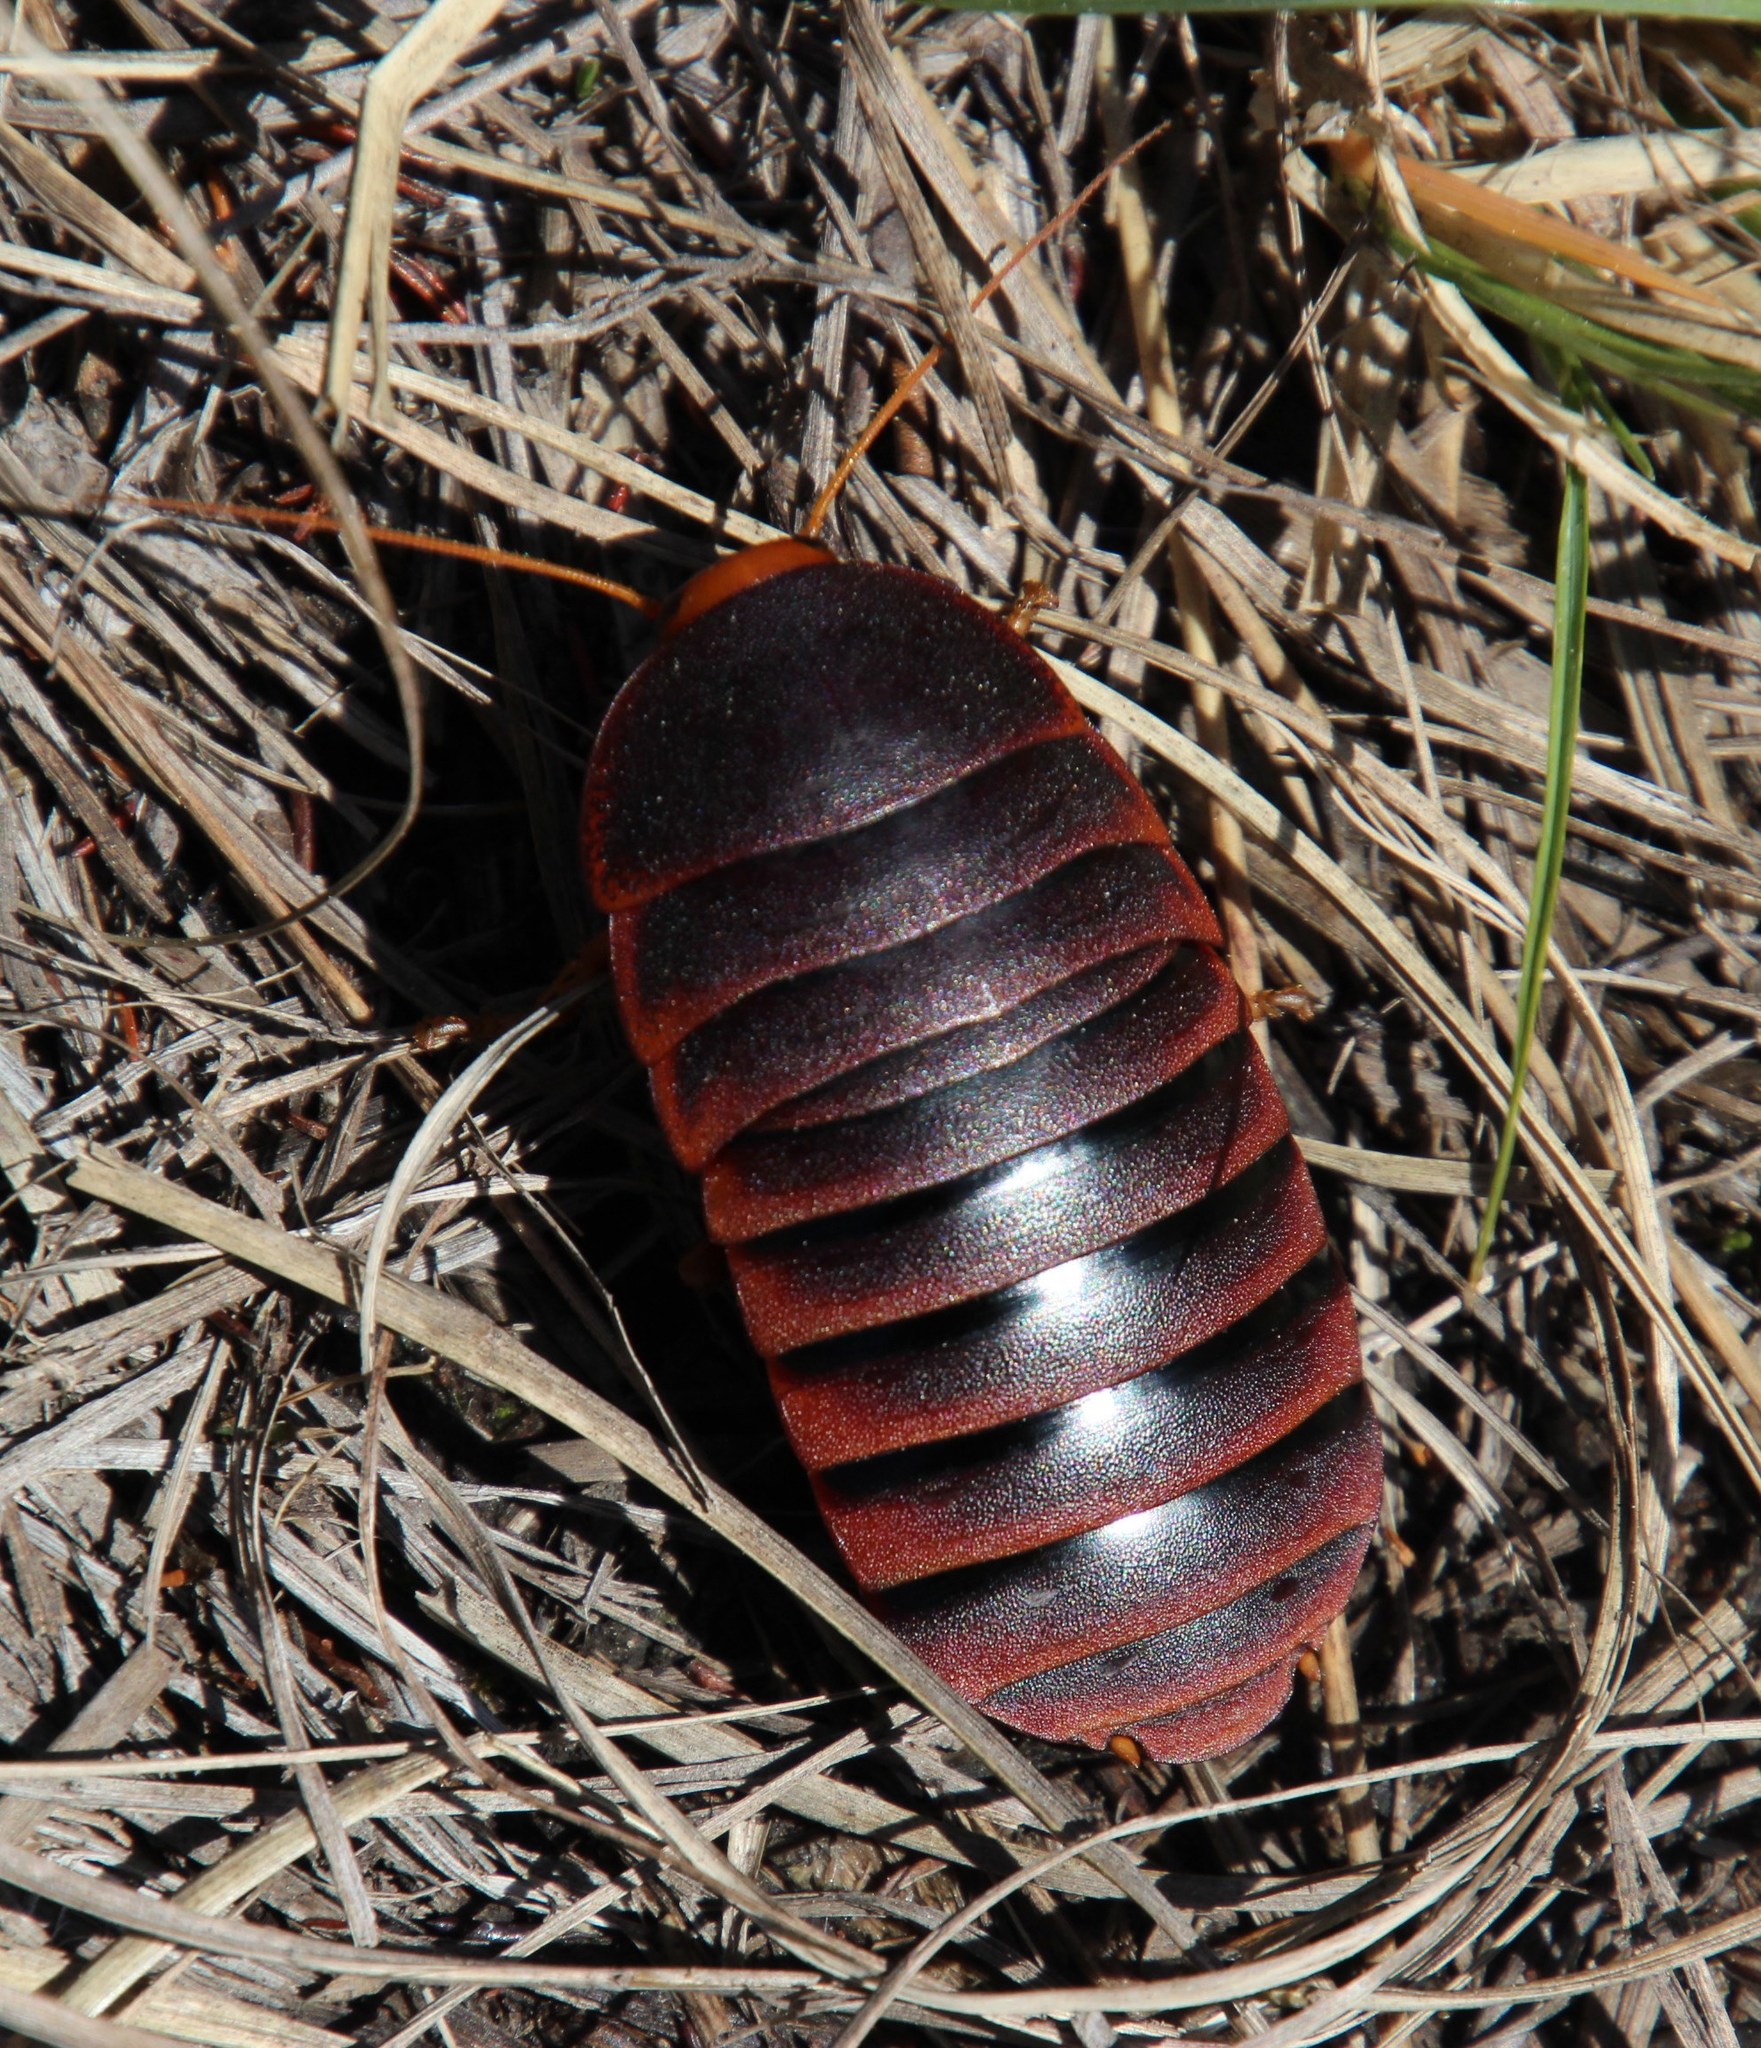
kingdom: Animalia
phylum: Arthropoda
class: Insecta
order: Blattodea
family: Blaberidae
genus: Aptera
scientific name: Aptera fusca
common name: Cape mountain cockroach
